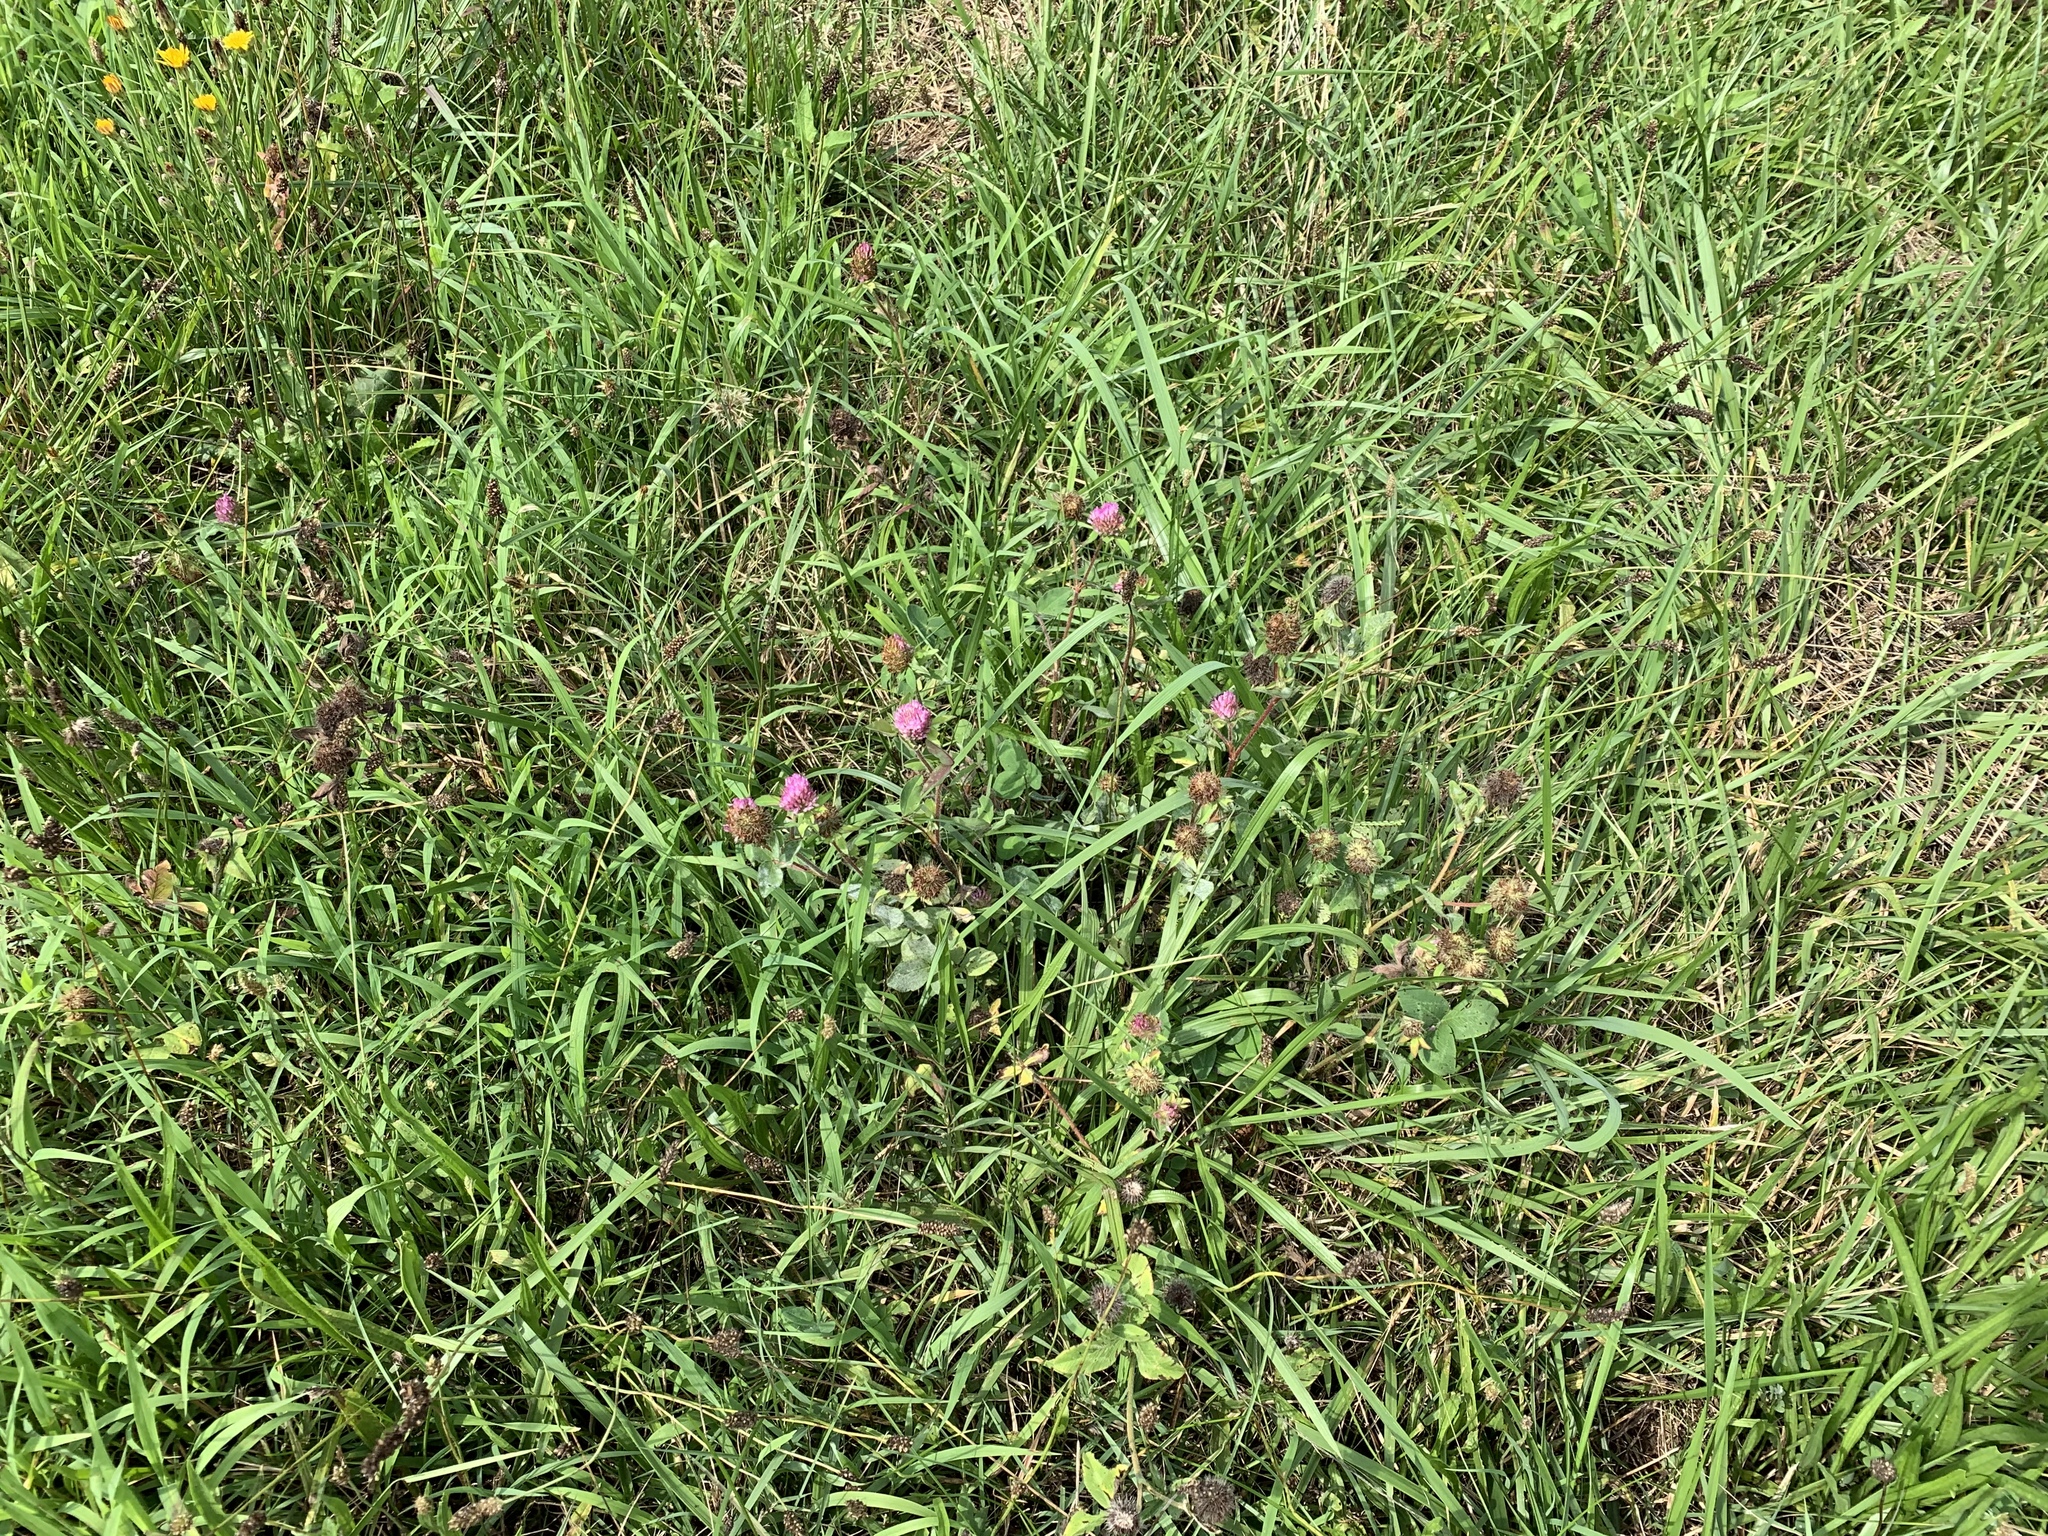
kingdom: Plantae
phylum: Tracheophyta
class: Magnoliopsida
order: Fabales
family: Fabaceae
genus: Trifolium
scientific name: Trifolium pratense
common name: Red clover
